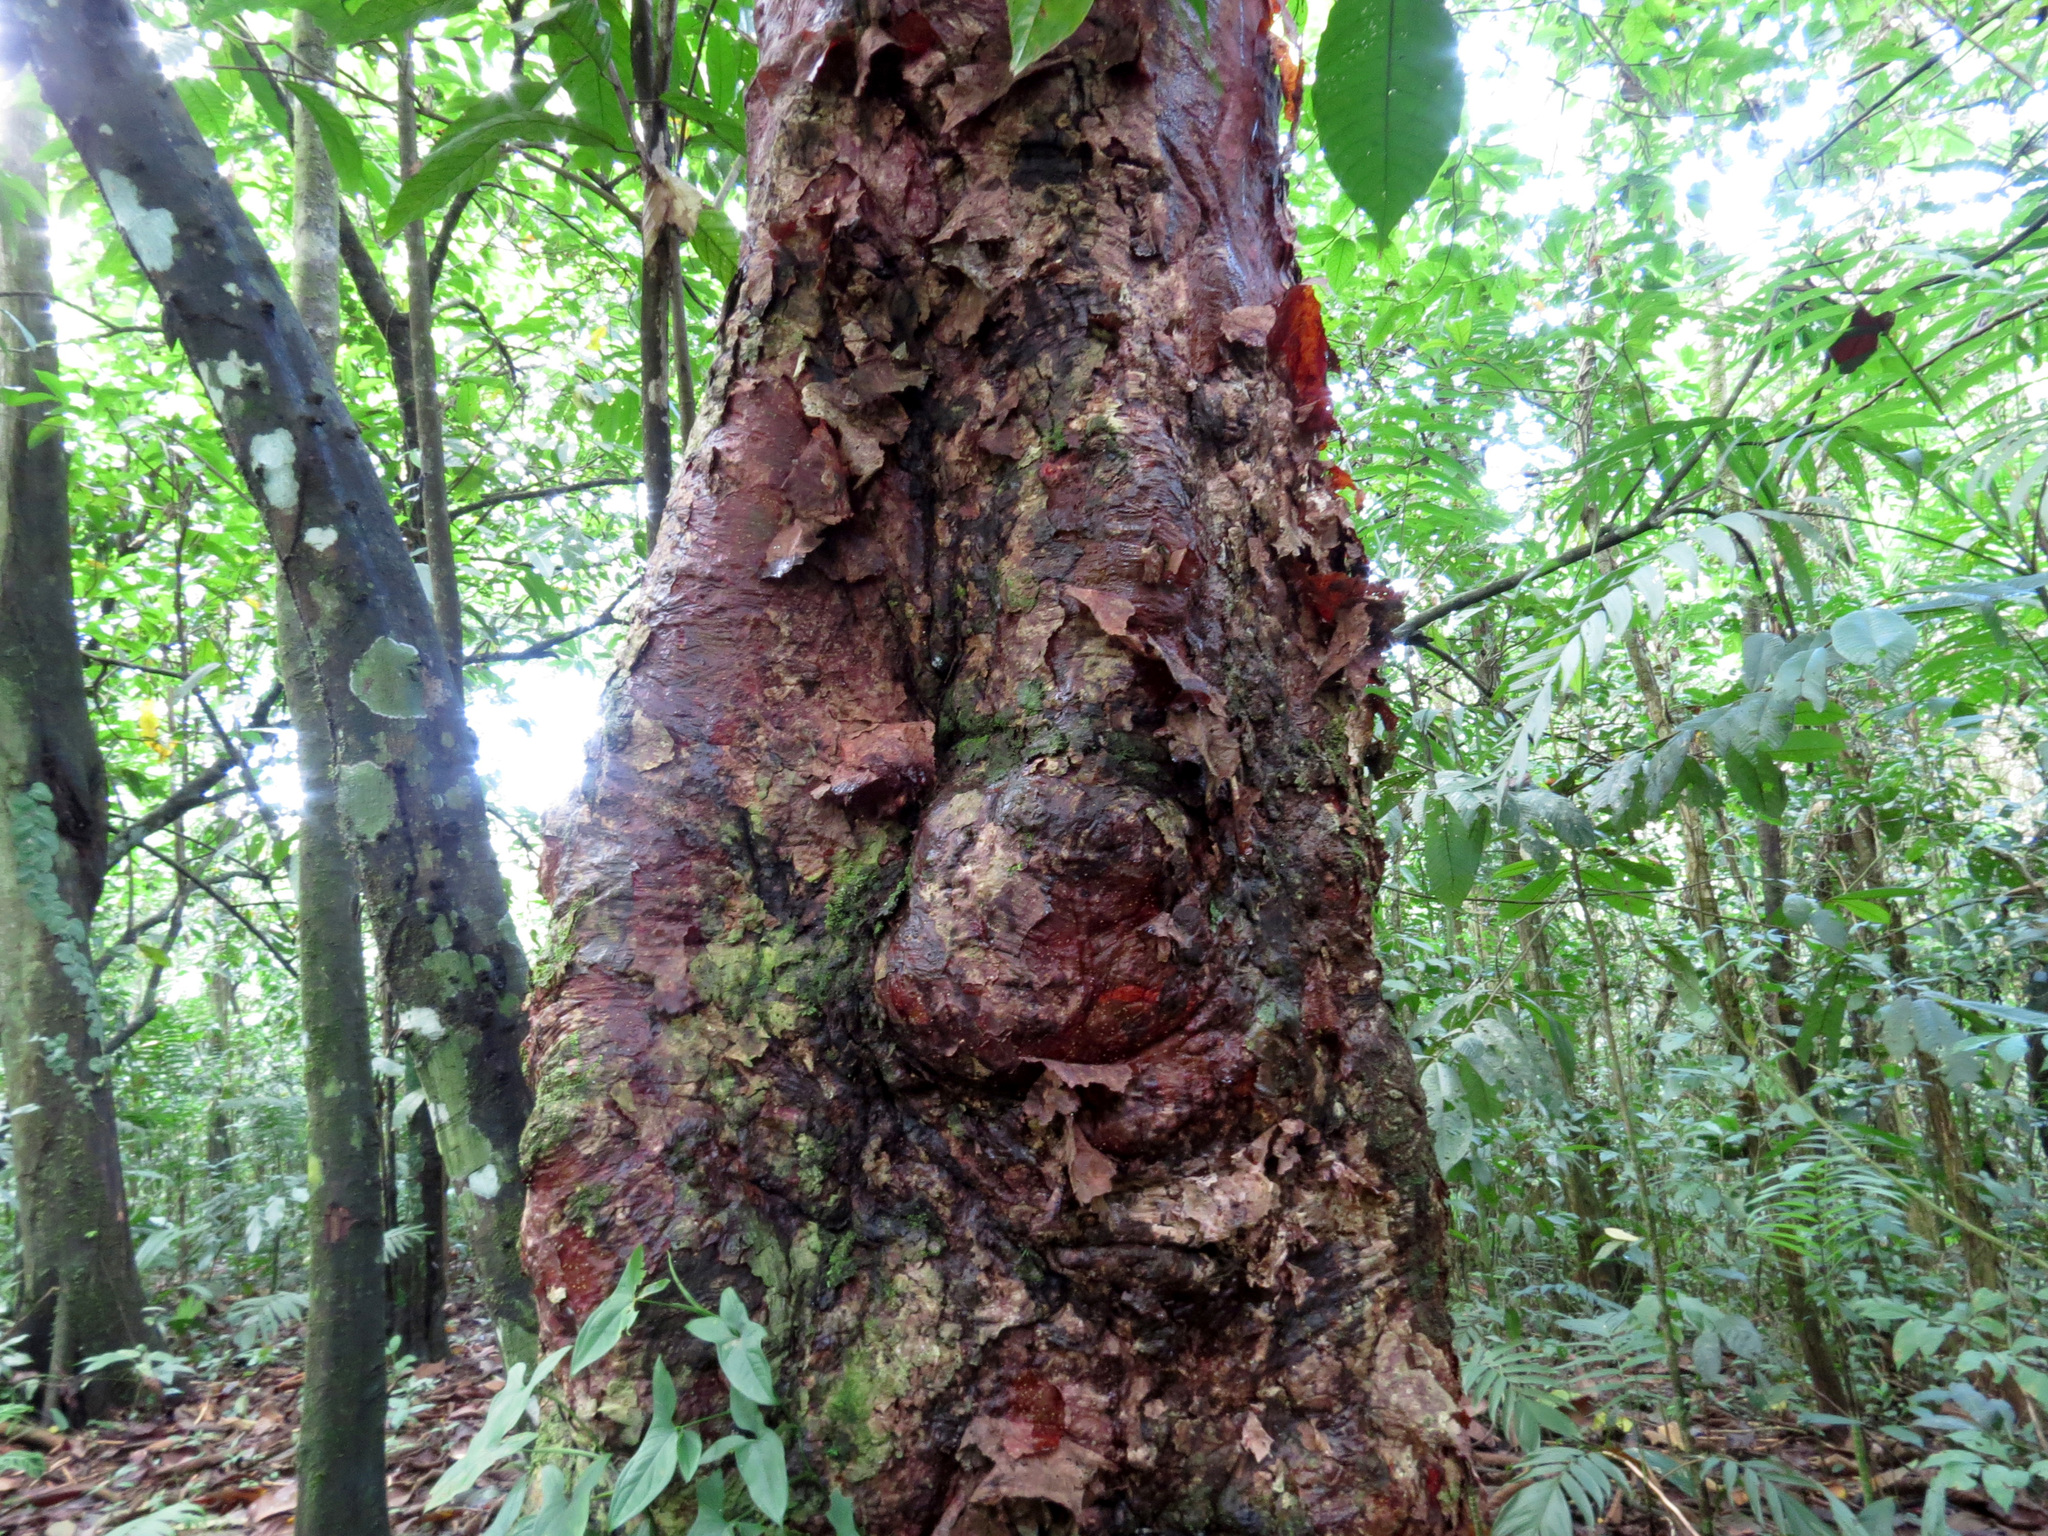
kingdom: Plantae
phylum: Tracheophyta
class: Magnoliopsida
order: Sapindales
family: Burseraceae
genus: Bursera
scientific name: Bursera simaruba
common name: Turpentine tree
